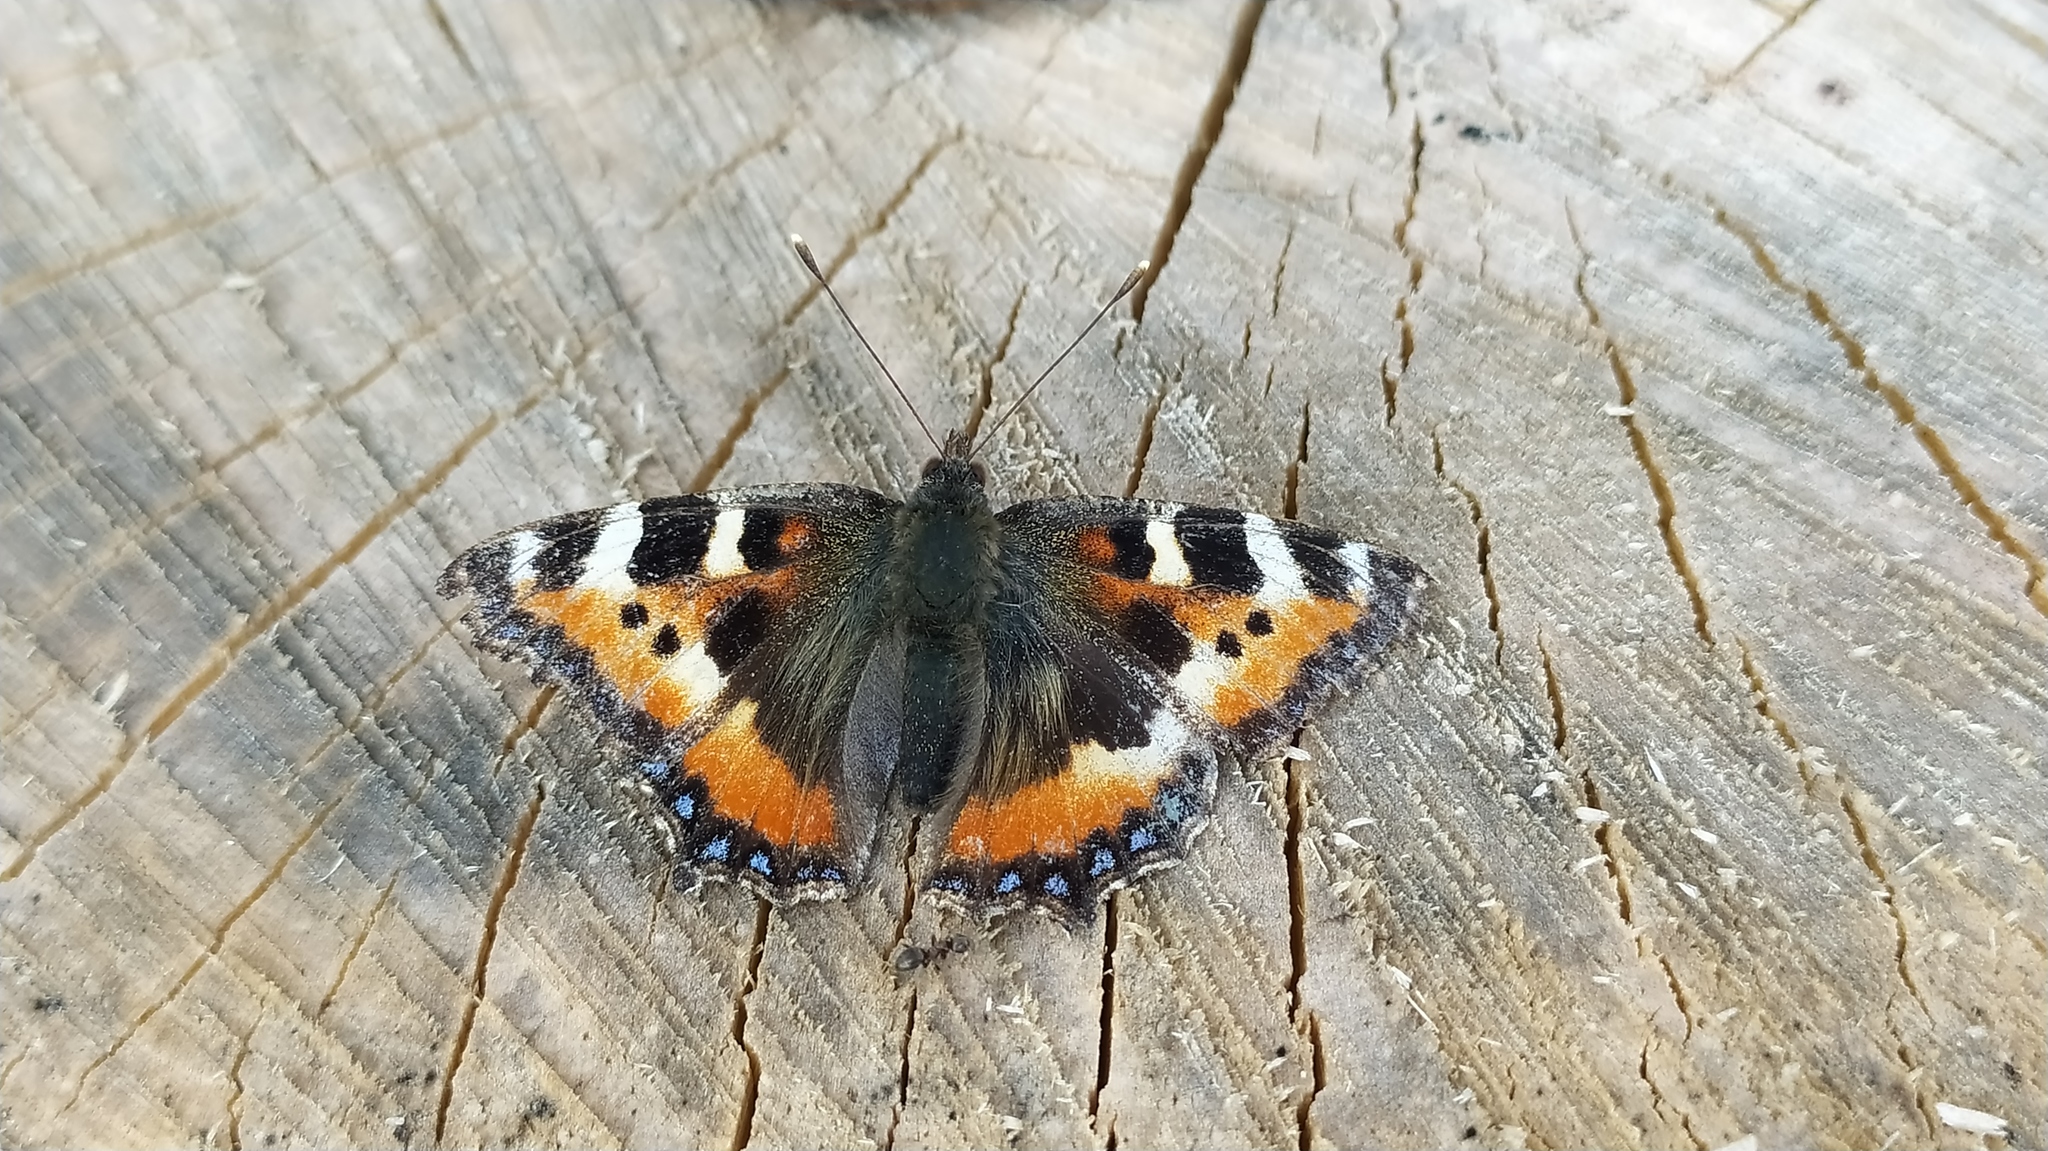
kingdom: Animalia
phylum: Arthropoda
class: Insecta
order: Lepidoptera
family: Nymphalidae
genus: Aglais
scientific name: Aglais urticae
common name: Small tortoiseshell
